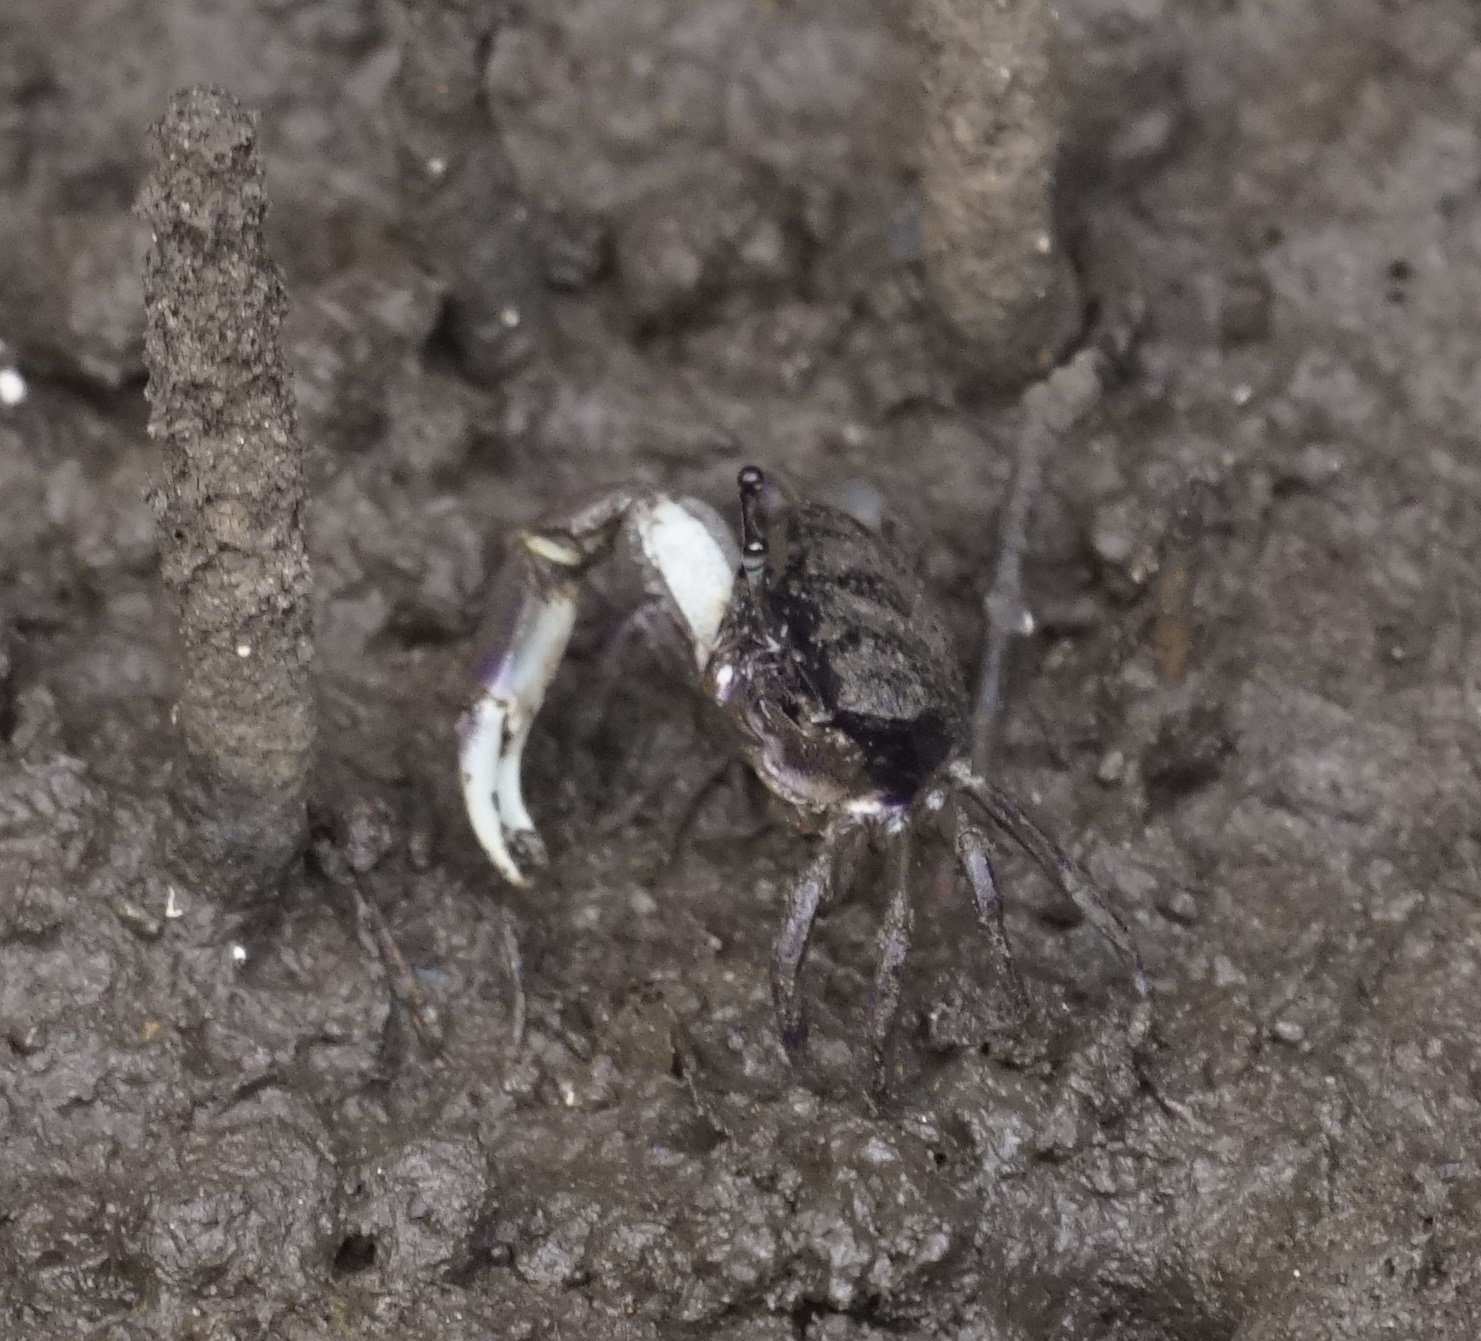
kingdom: Animalia
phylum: Arthropoda
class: Malacostraca
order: Decapoda
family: Heloeciidae
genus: Heloecius
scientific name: Heloecius cordiformis
